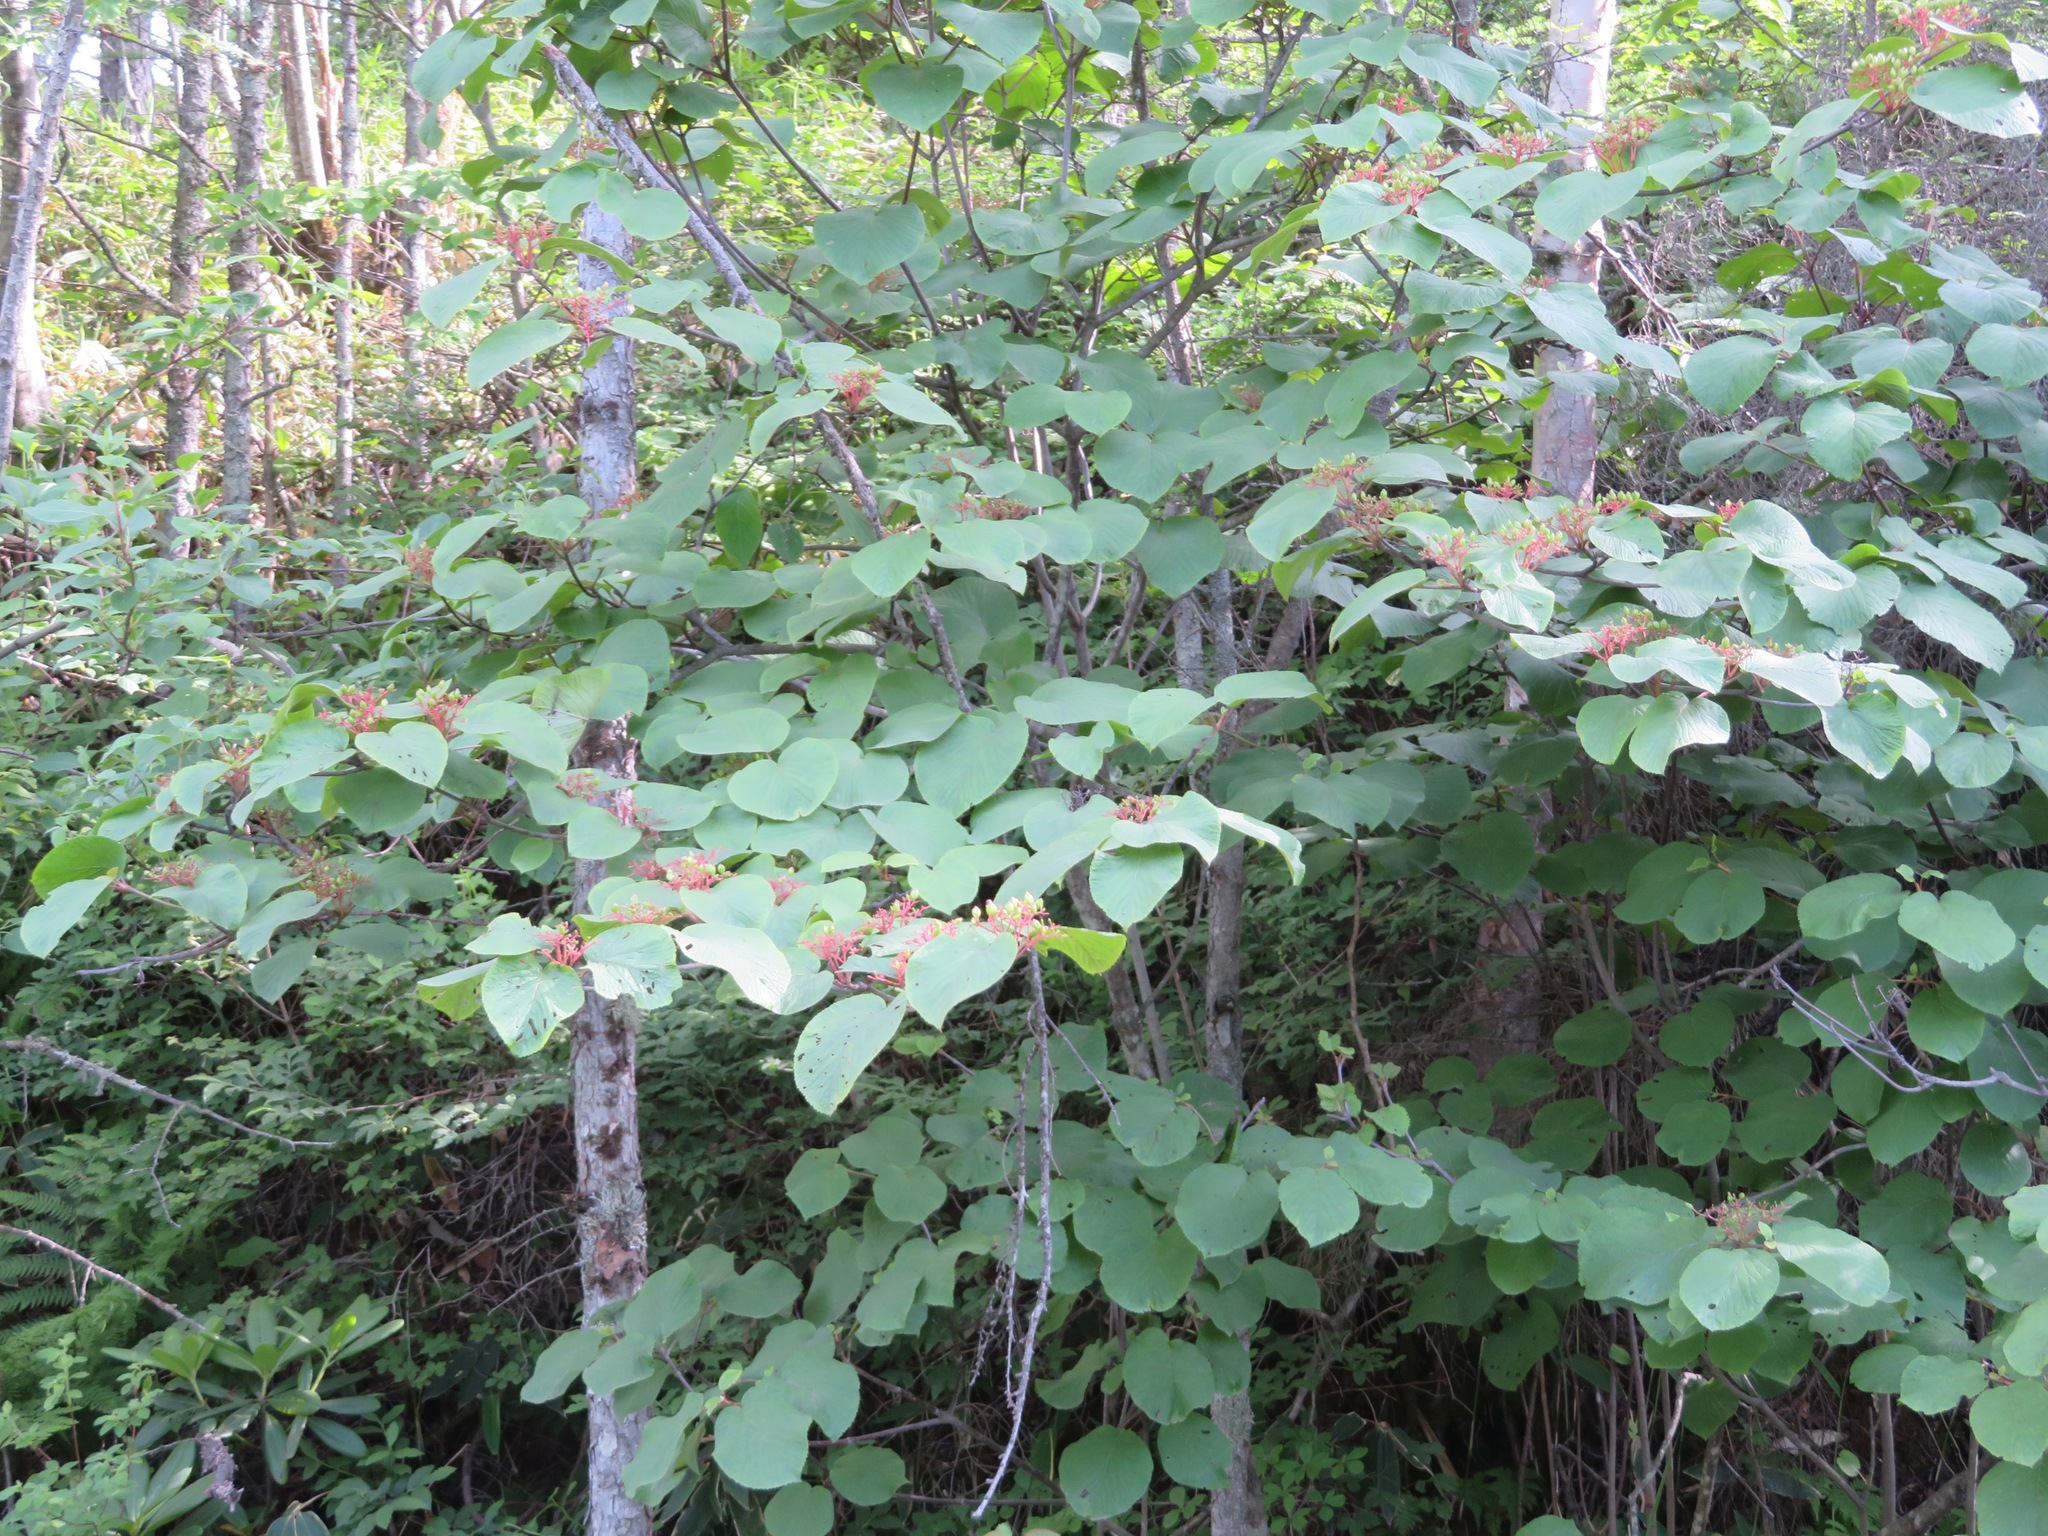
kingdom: Plantae
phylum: Tracheophyta
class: Magnoliopsida
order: Dipsacales
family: Viburnaceae
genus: Viburnum
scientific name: Viburnum furcatum
